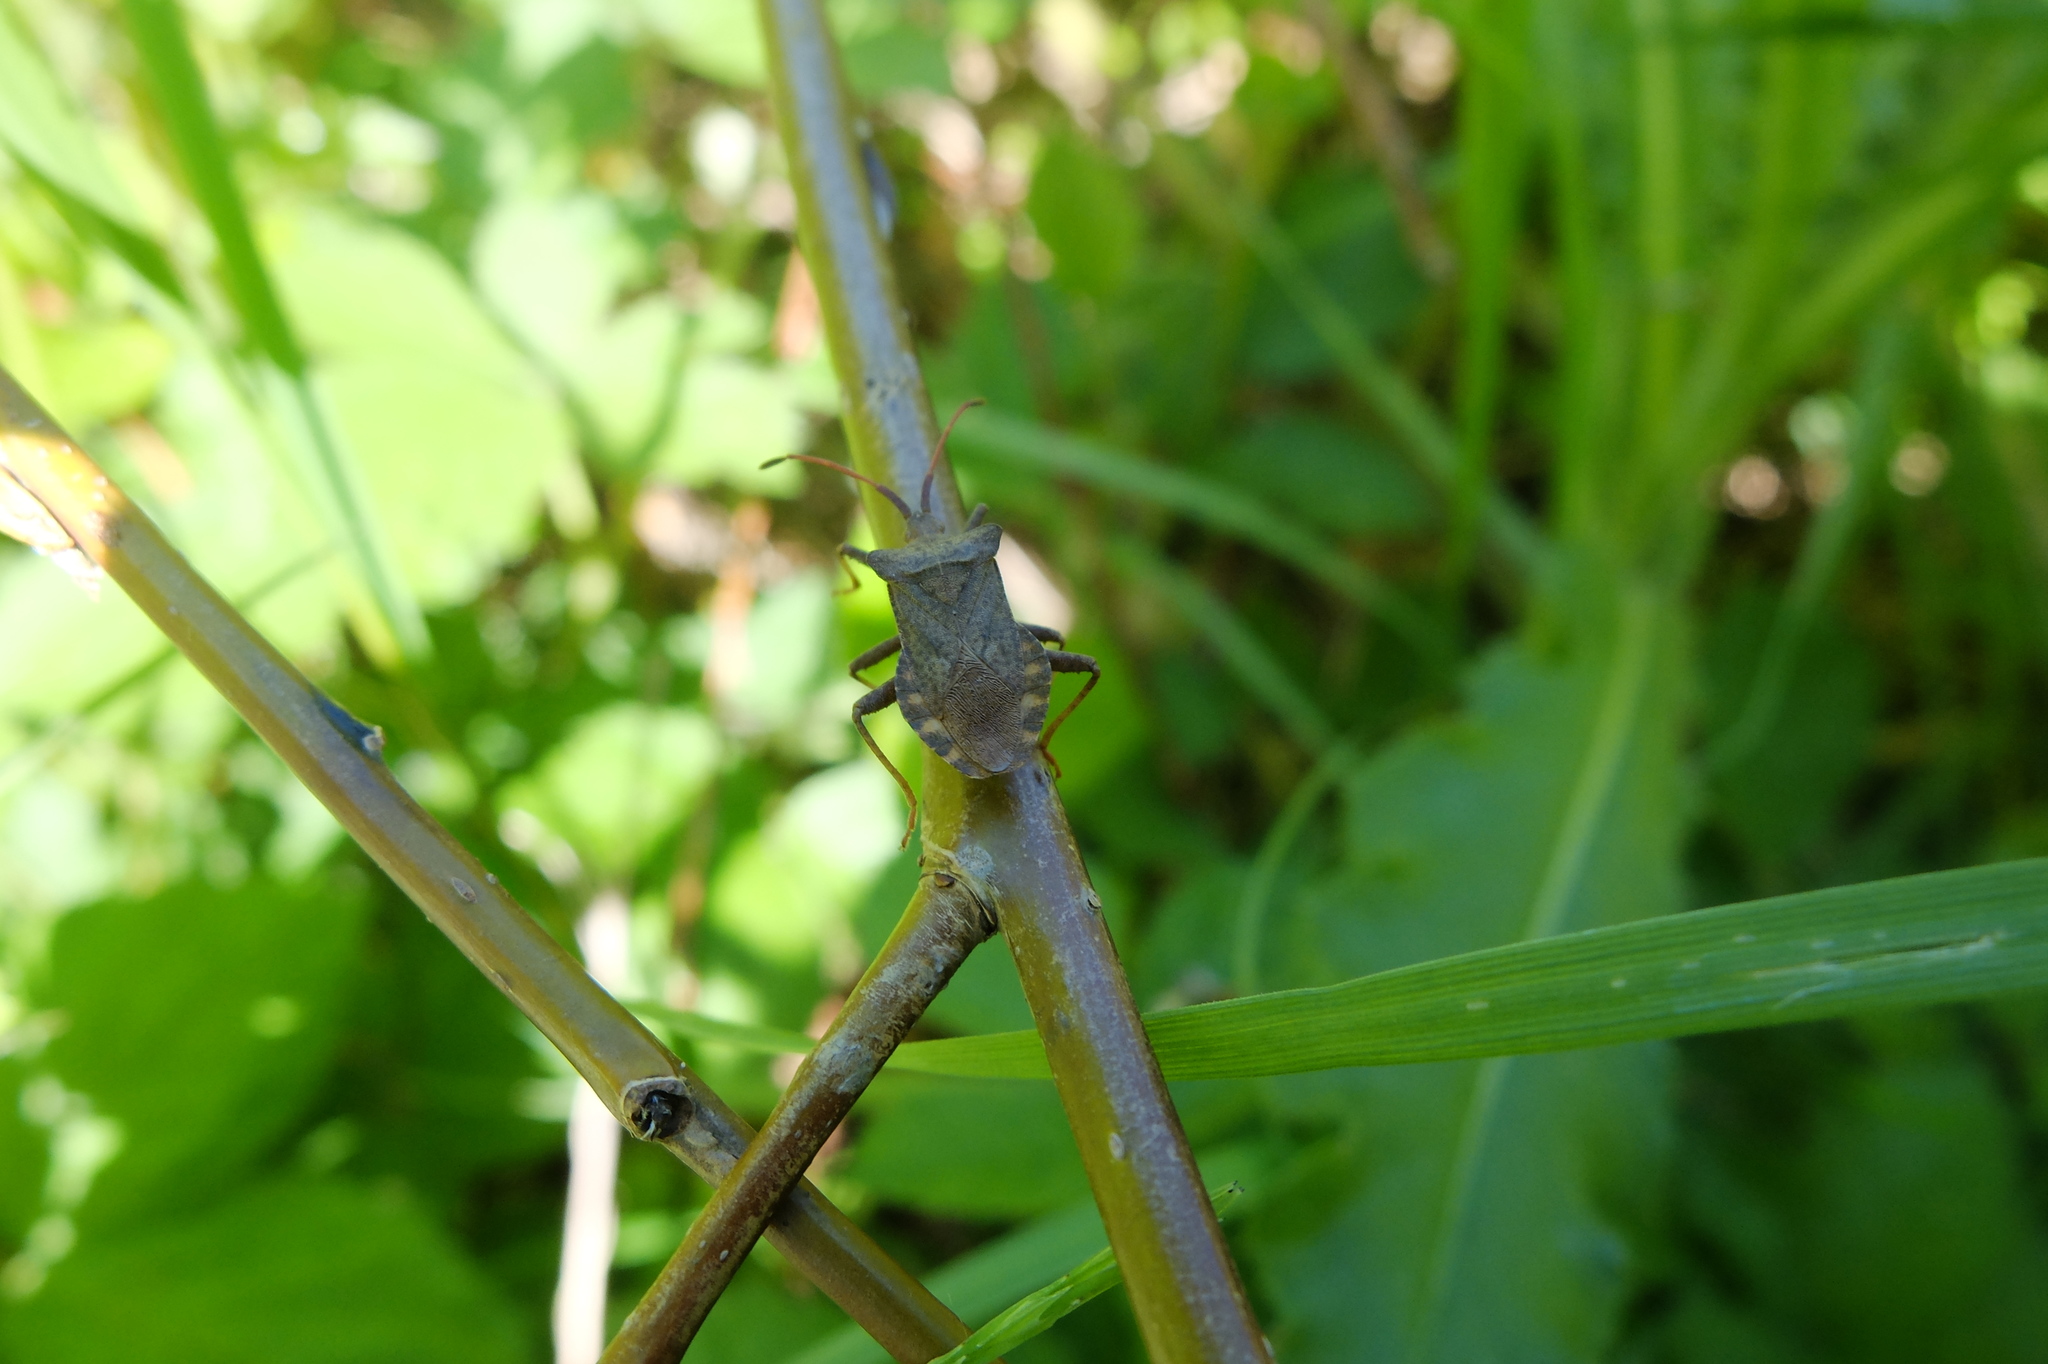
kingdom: Animalia
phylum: Arthropoda
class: Insecta
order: Hemiptera
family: Coreidae
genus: Coreus
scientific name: Coreus marginatus
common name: Dock bug
